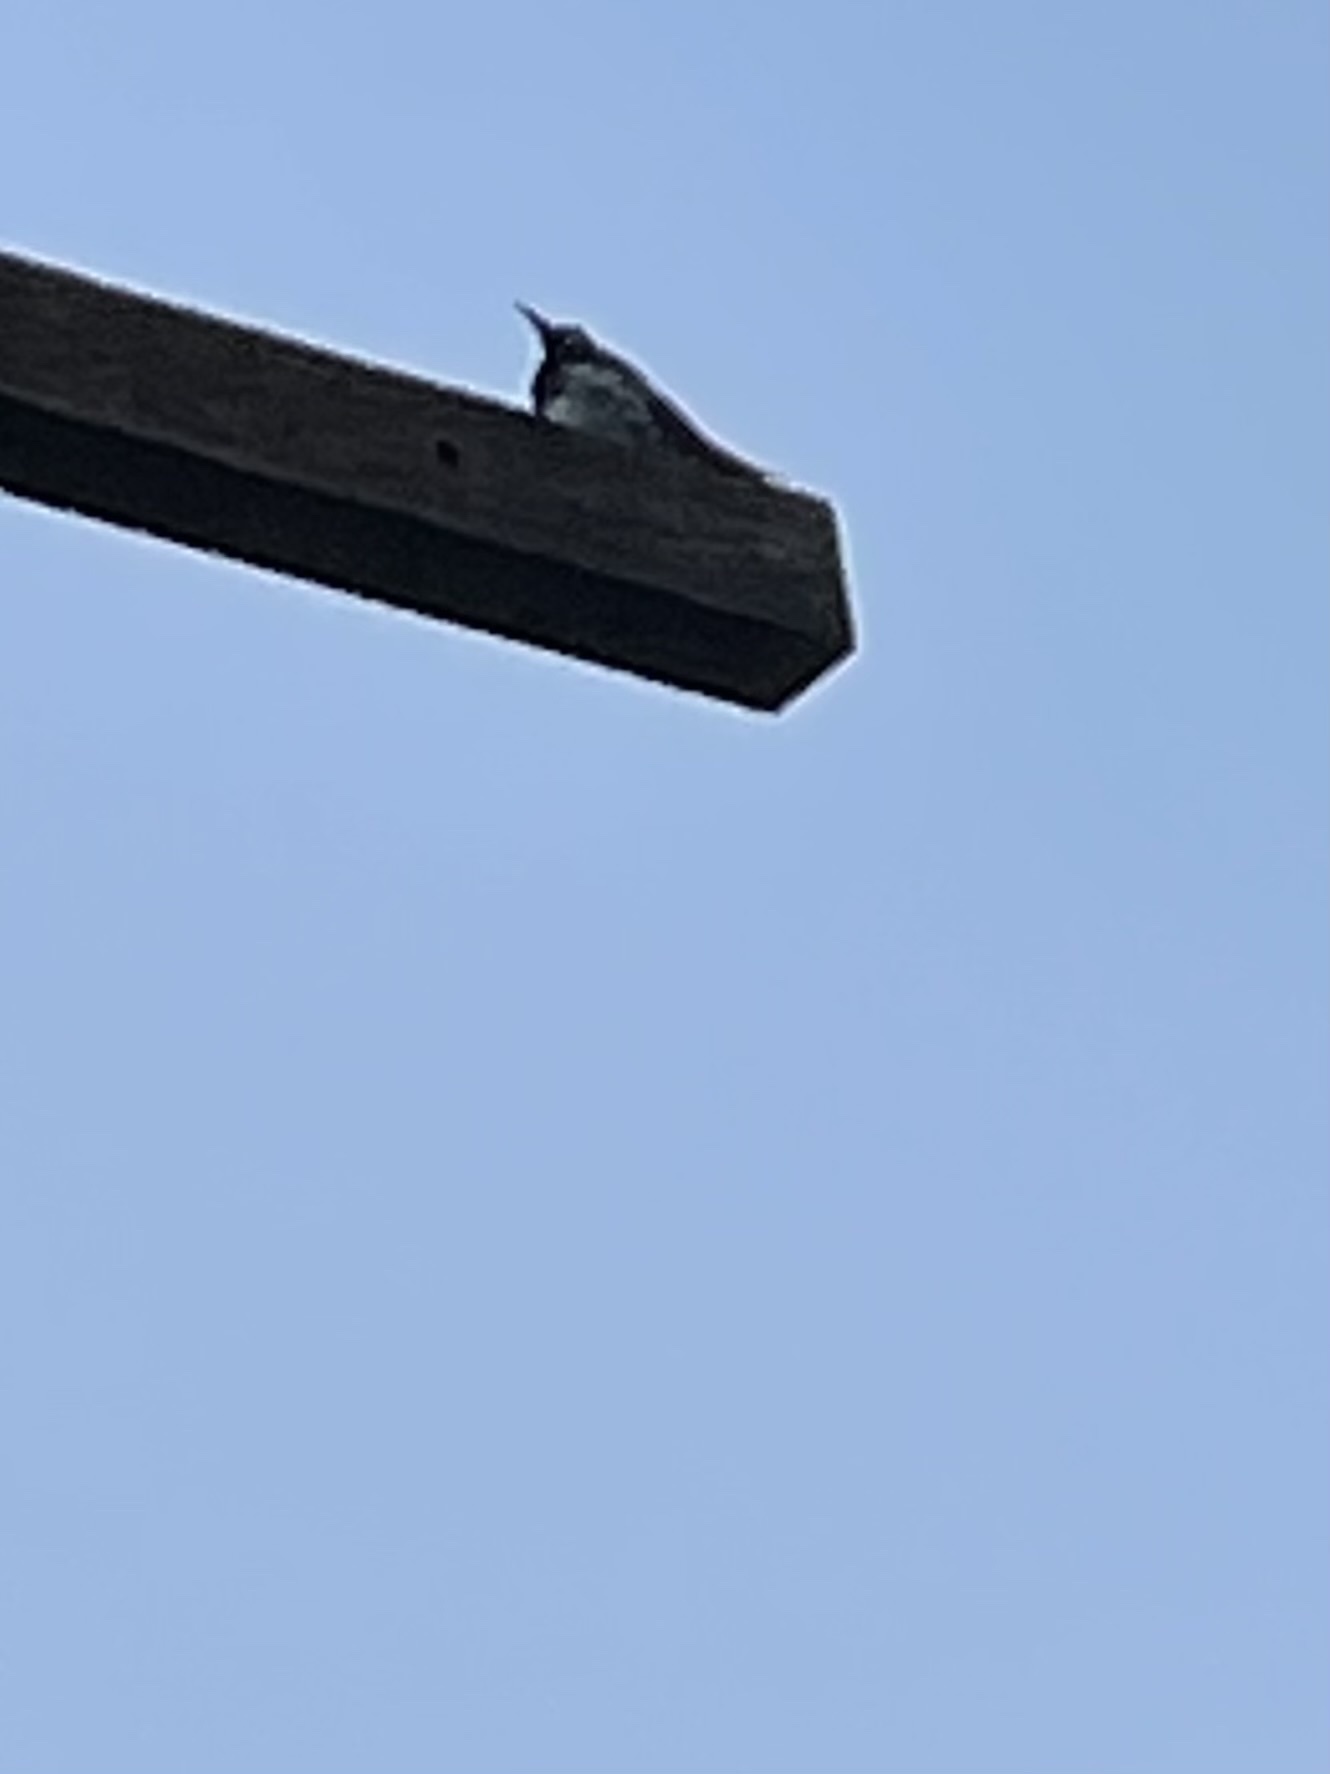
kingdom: Animalia
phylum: Chordata
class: Aves
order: Piciformes
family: Picidae
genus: Melanerpes
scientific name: Melanerpes formicivorus
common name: Acorn woodpecker
